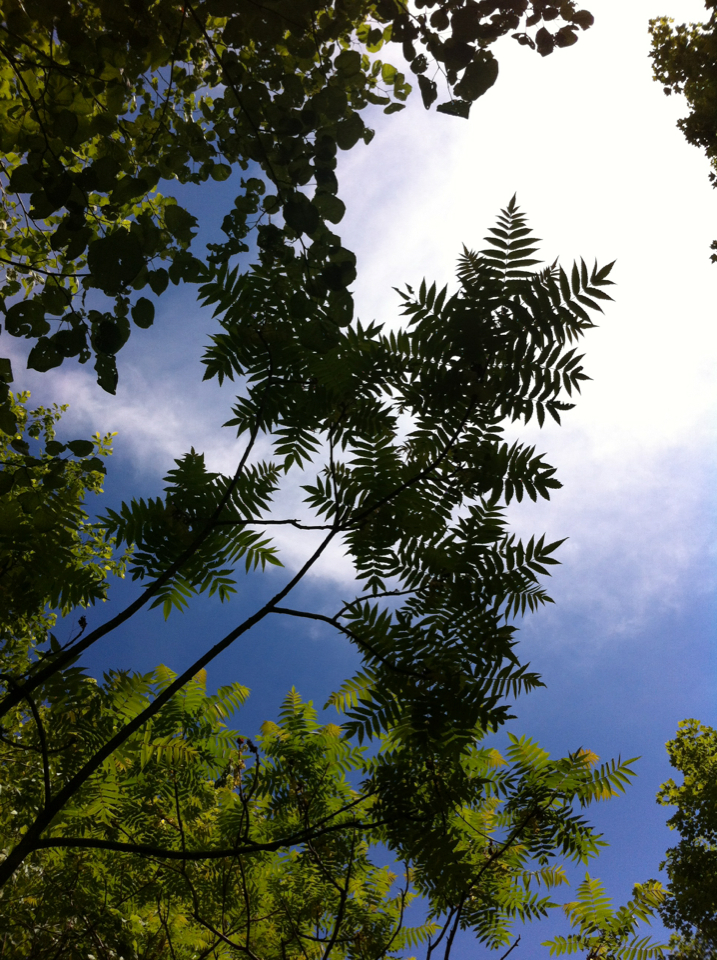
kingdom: Plantae
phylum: Tracheophyta
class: Magnoliopsida
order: Sapindales
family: Anacardiaceae
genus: Rhus
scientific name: Rhus typhina
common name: Staghorn sumac
